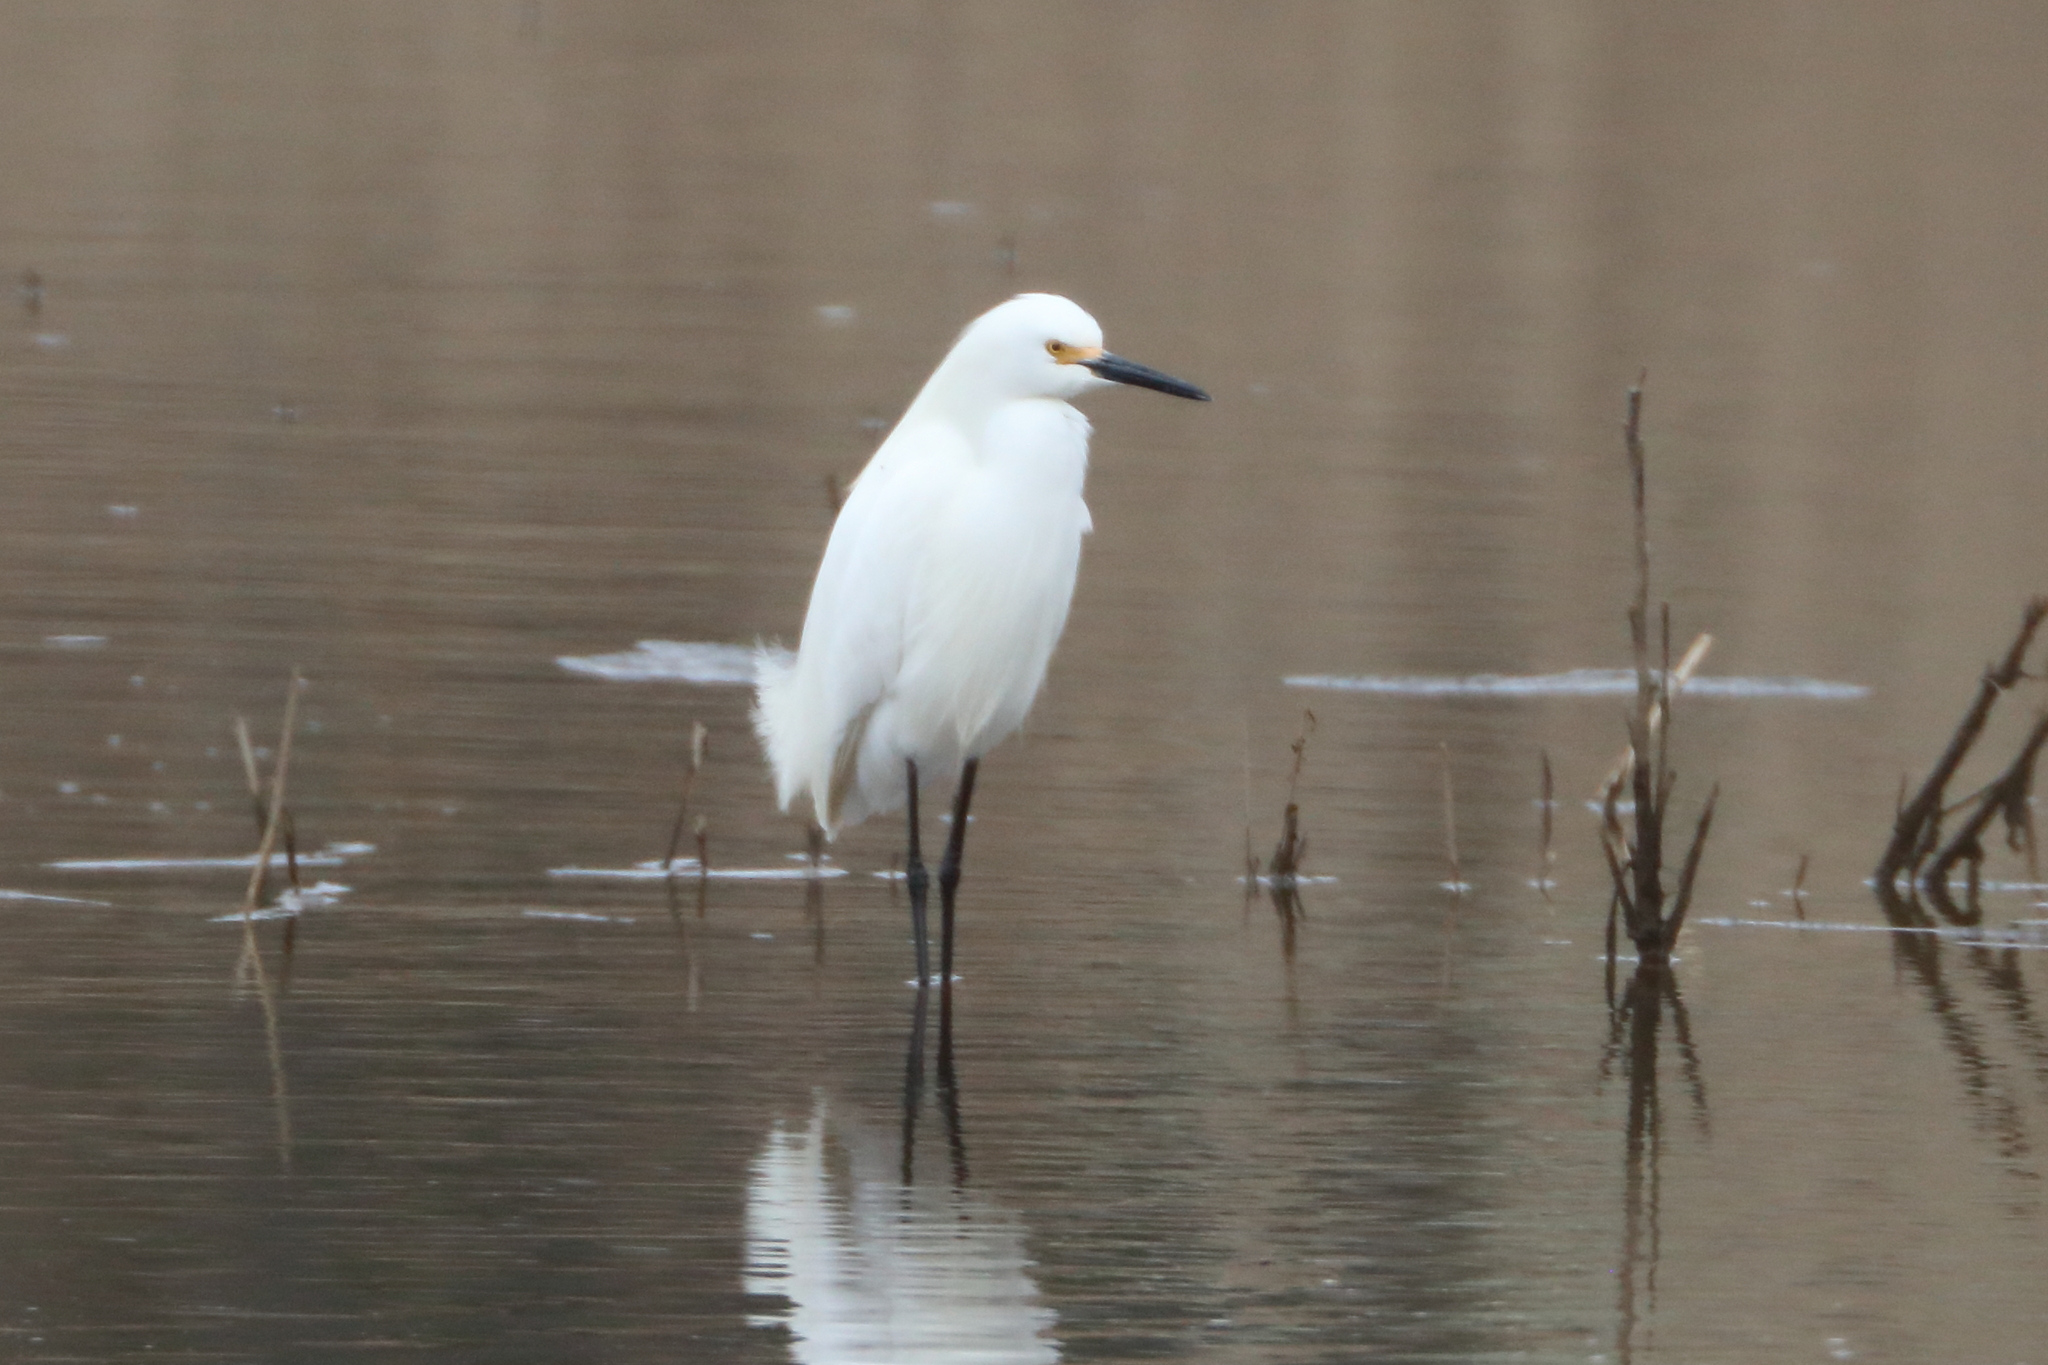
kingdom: Animalia
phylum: Chordata
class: Aves
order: Pelecaniformes
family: Ardeidae
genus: Egretta
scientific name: Egretta thula
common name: Snowy egret
